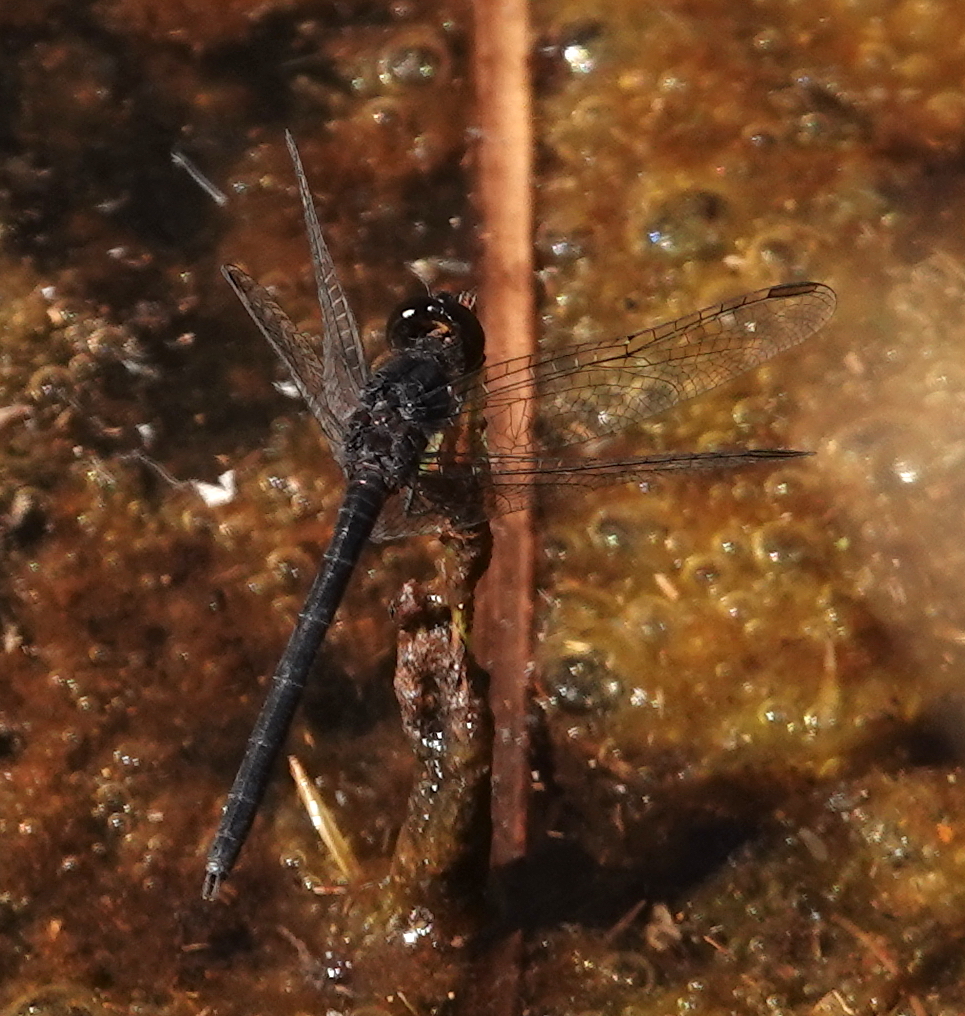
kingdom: Animalia
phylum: Arthropoda
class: Insecta
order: Odonata
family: Libellulidae
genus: Diplacodes
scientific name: Diplacodes lefebvrii
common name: Black percher
